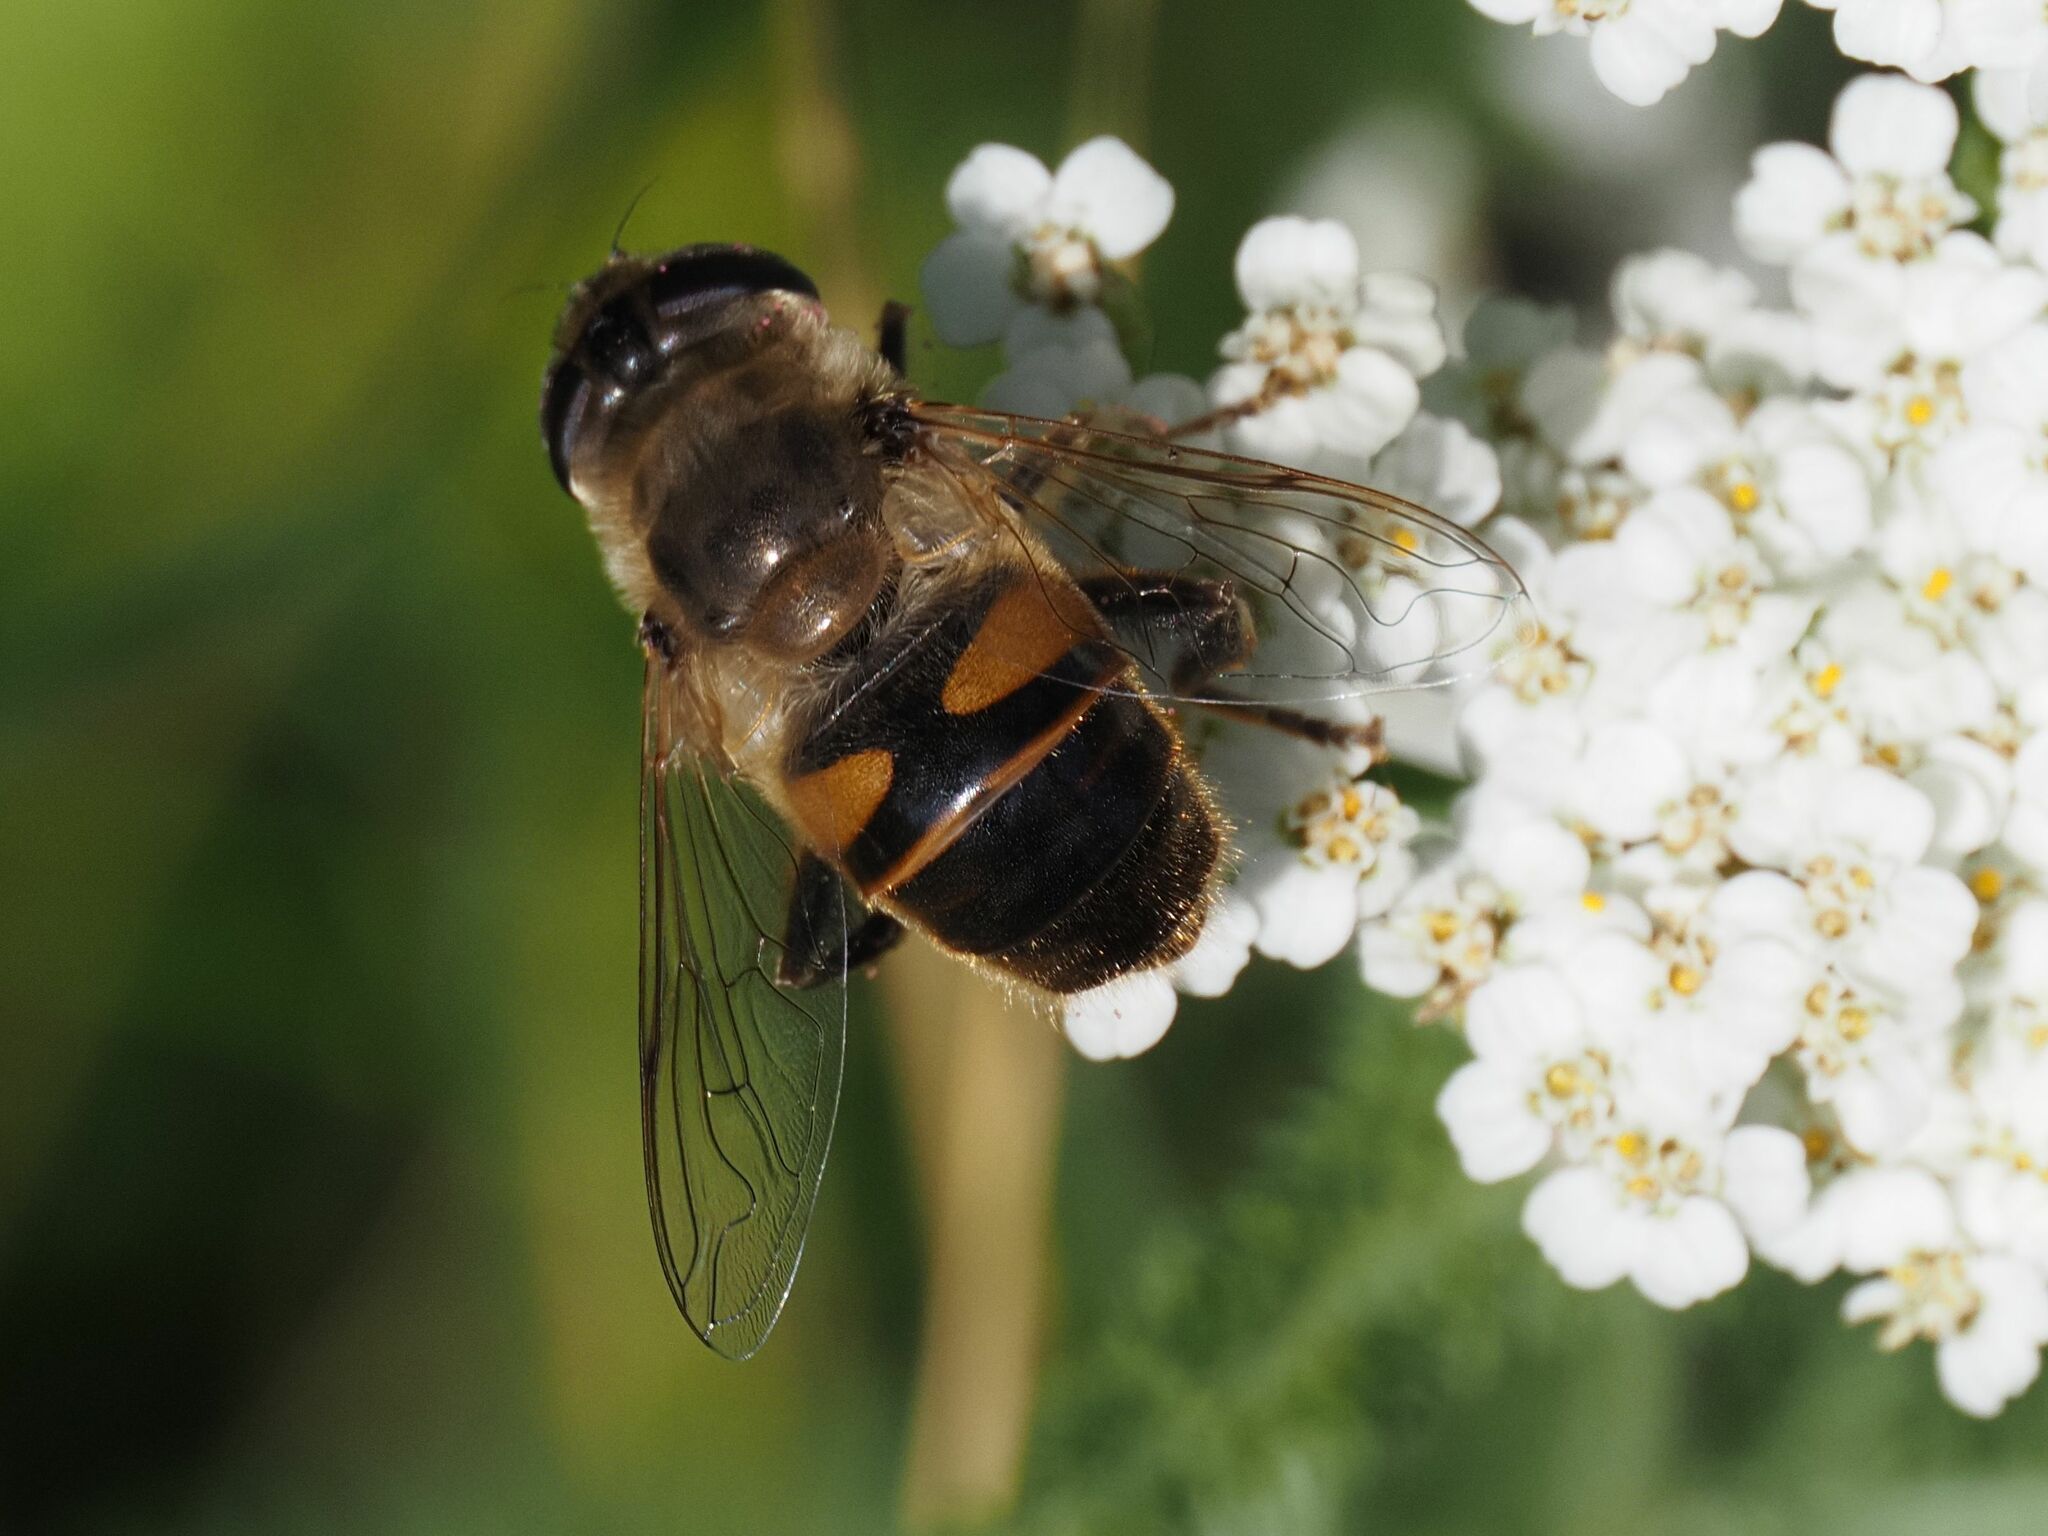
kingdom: Animalia
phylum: Arthropoda
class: Insecta
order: Diptera
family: Syrphidae
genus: Eristalis
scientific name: Eristalis tenax
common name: Drone fly
